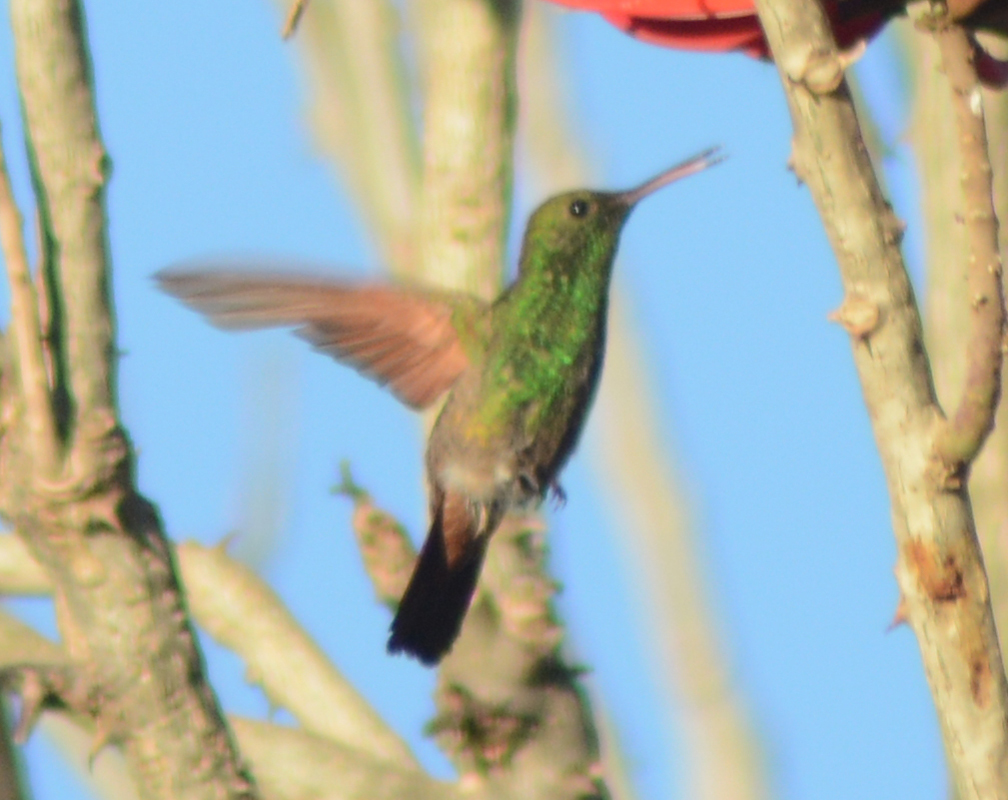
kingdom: Animalia
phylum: Chordata
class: Aves
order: Apodiformes
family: Trochilidae
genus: Saucerottia
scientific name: Saucerottia beryllina
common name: Berylline hummingbird
